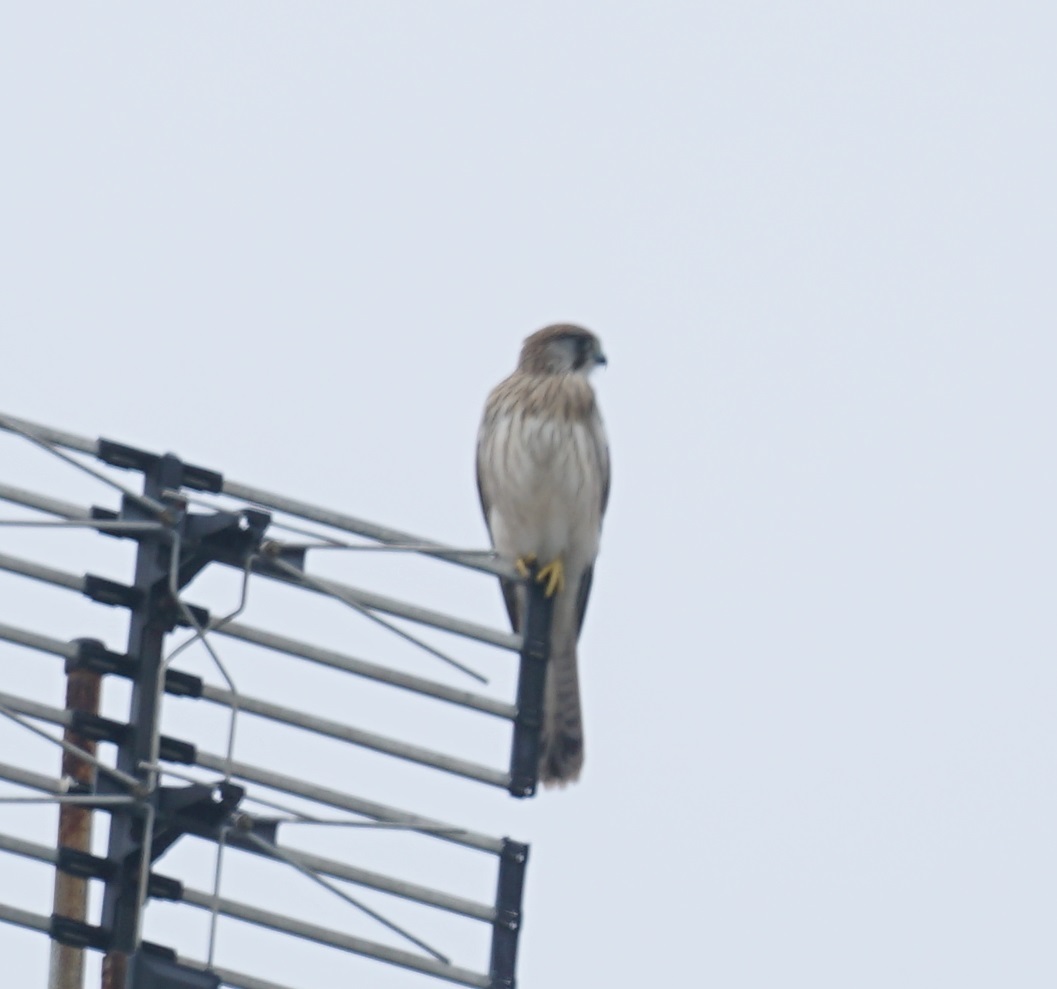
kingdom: Animalia
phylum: Chordata
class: Aves
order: Falconiformes
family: Falconidae
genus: Falco
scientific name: Falco cenchroides
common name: Nankeen kestrel
